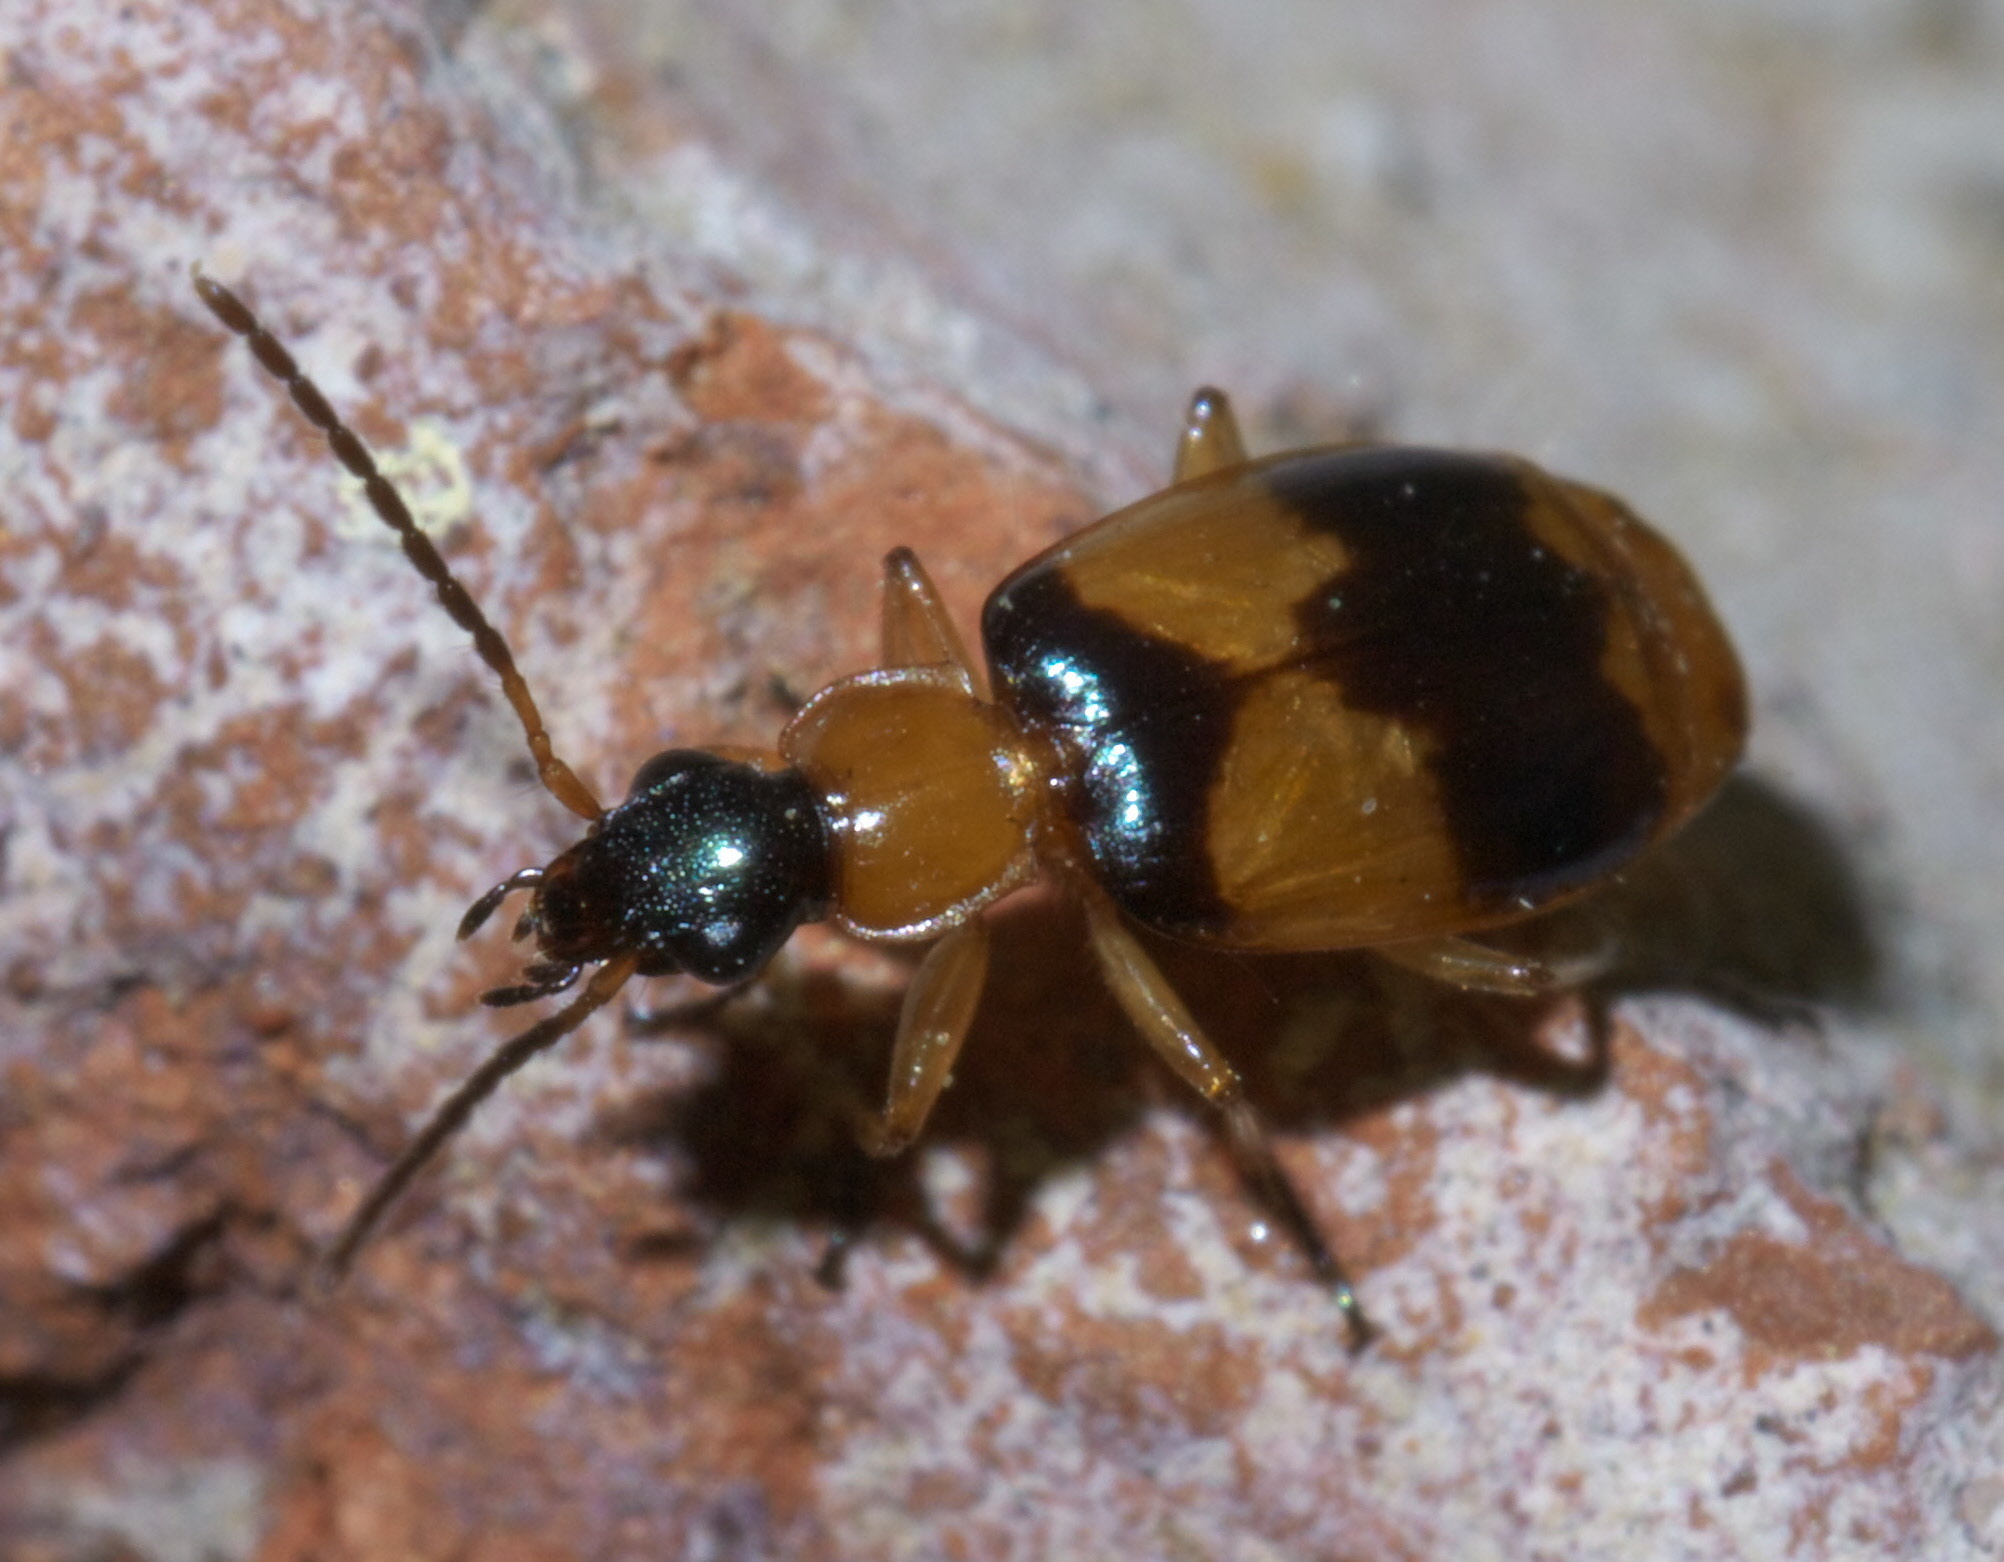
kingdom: Animalia
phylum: Arthropoda
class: Insecta
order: Coleoptera
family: Carabidae
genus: Lebia
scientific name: Lebia pulchella
